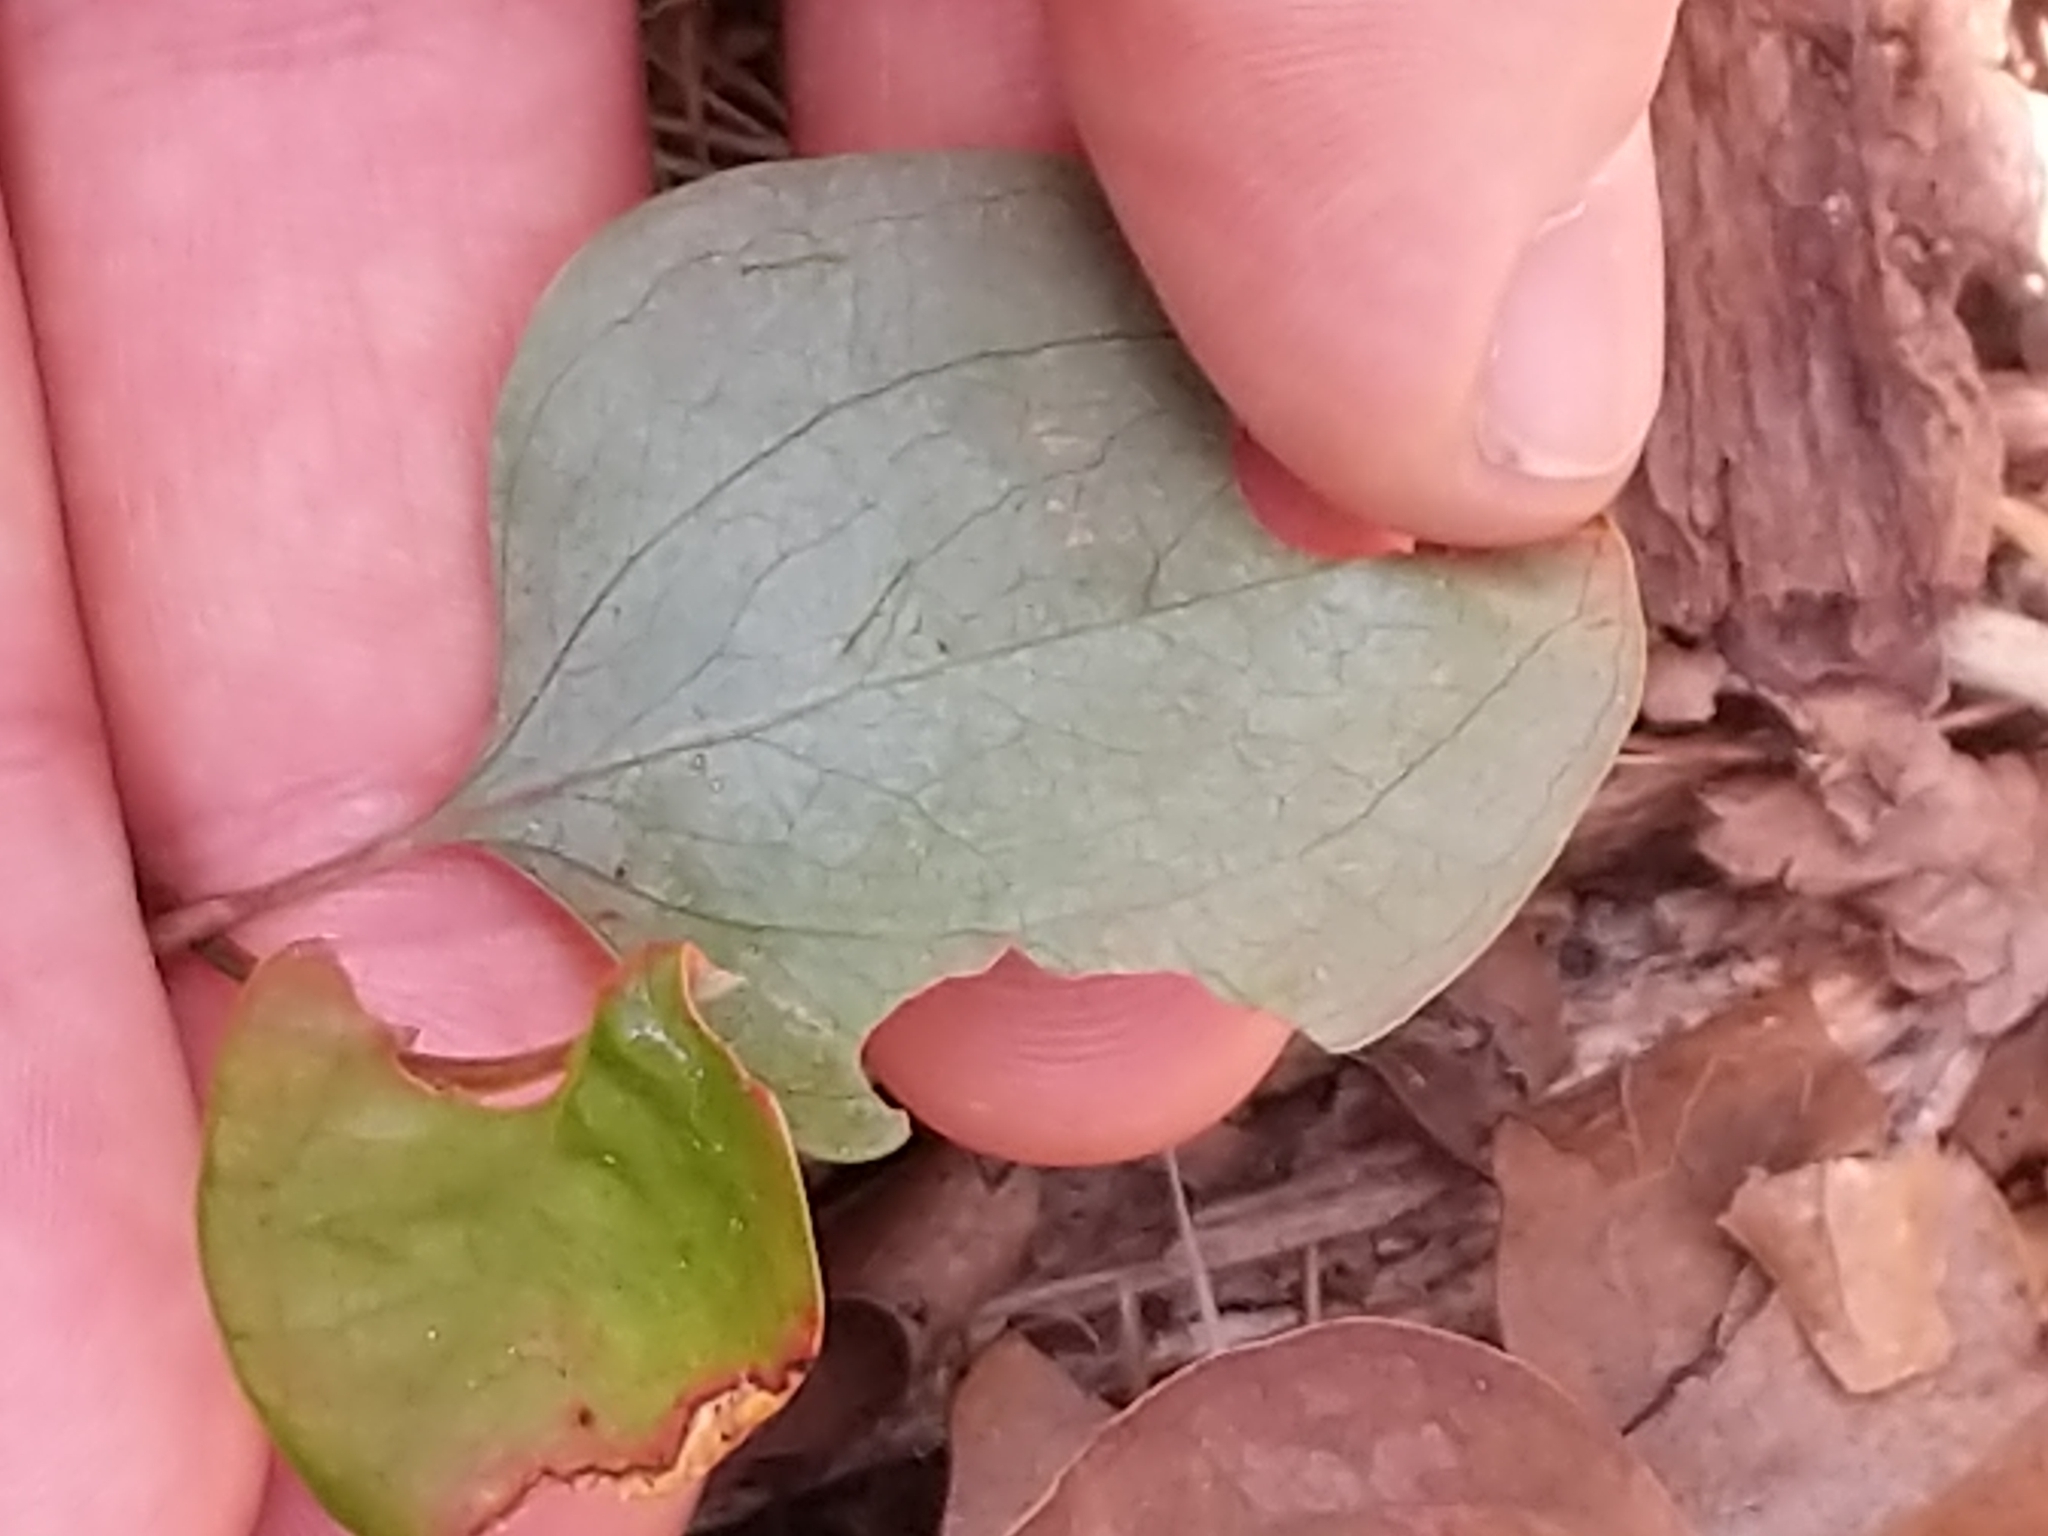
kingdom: Plantae
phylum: Tracheophyta
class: Liliopsida
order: Liliales
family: Smilacaceae
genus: Smilax
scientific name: Smilax glauca
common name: Cat greenbrier
